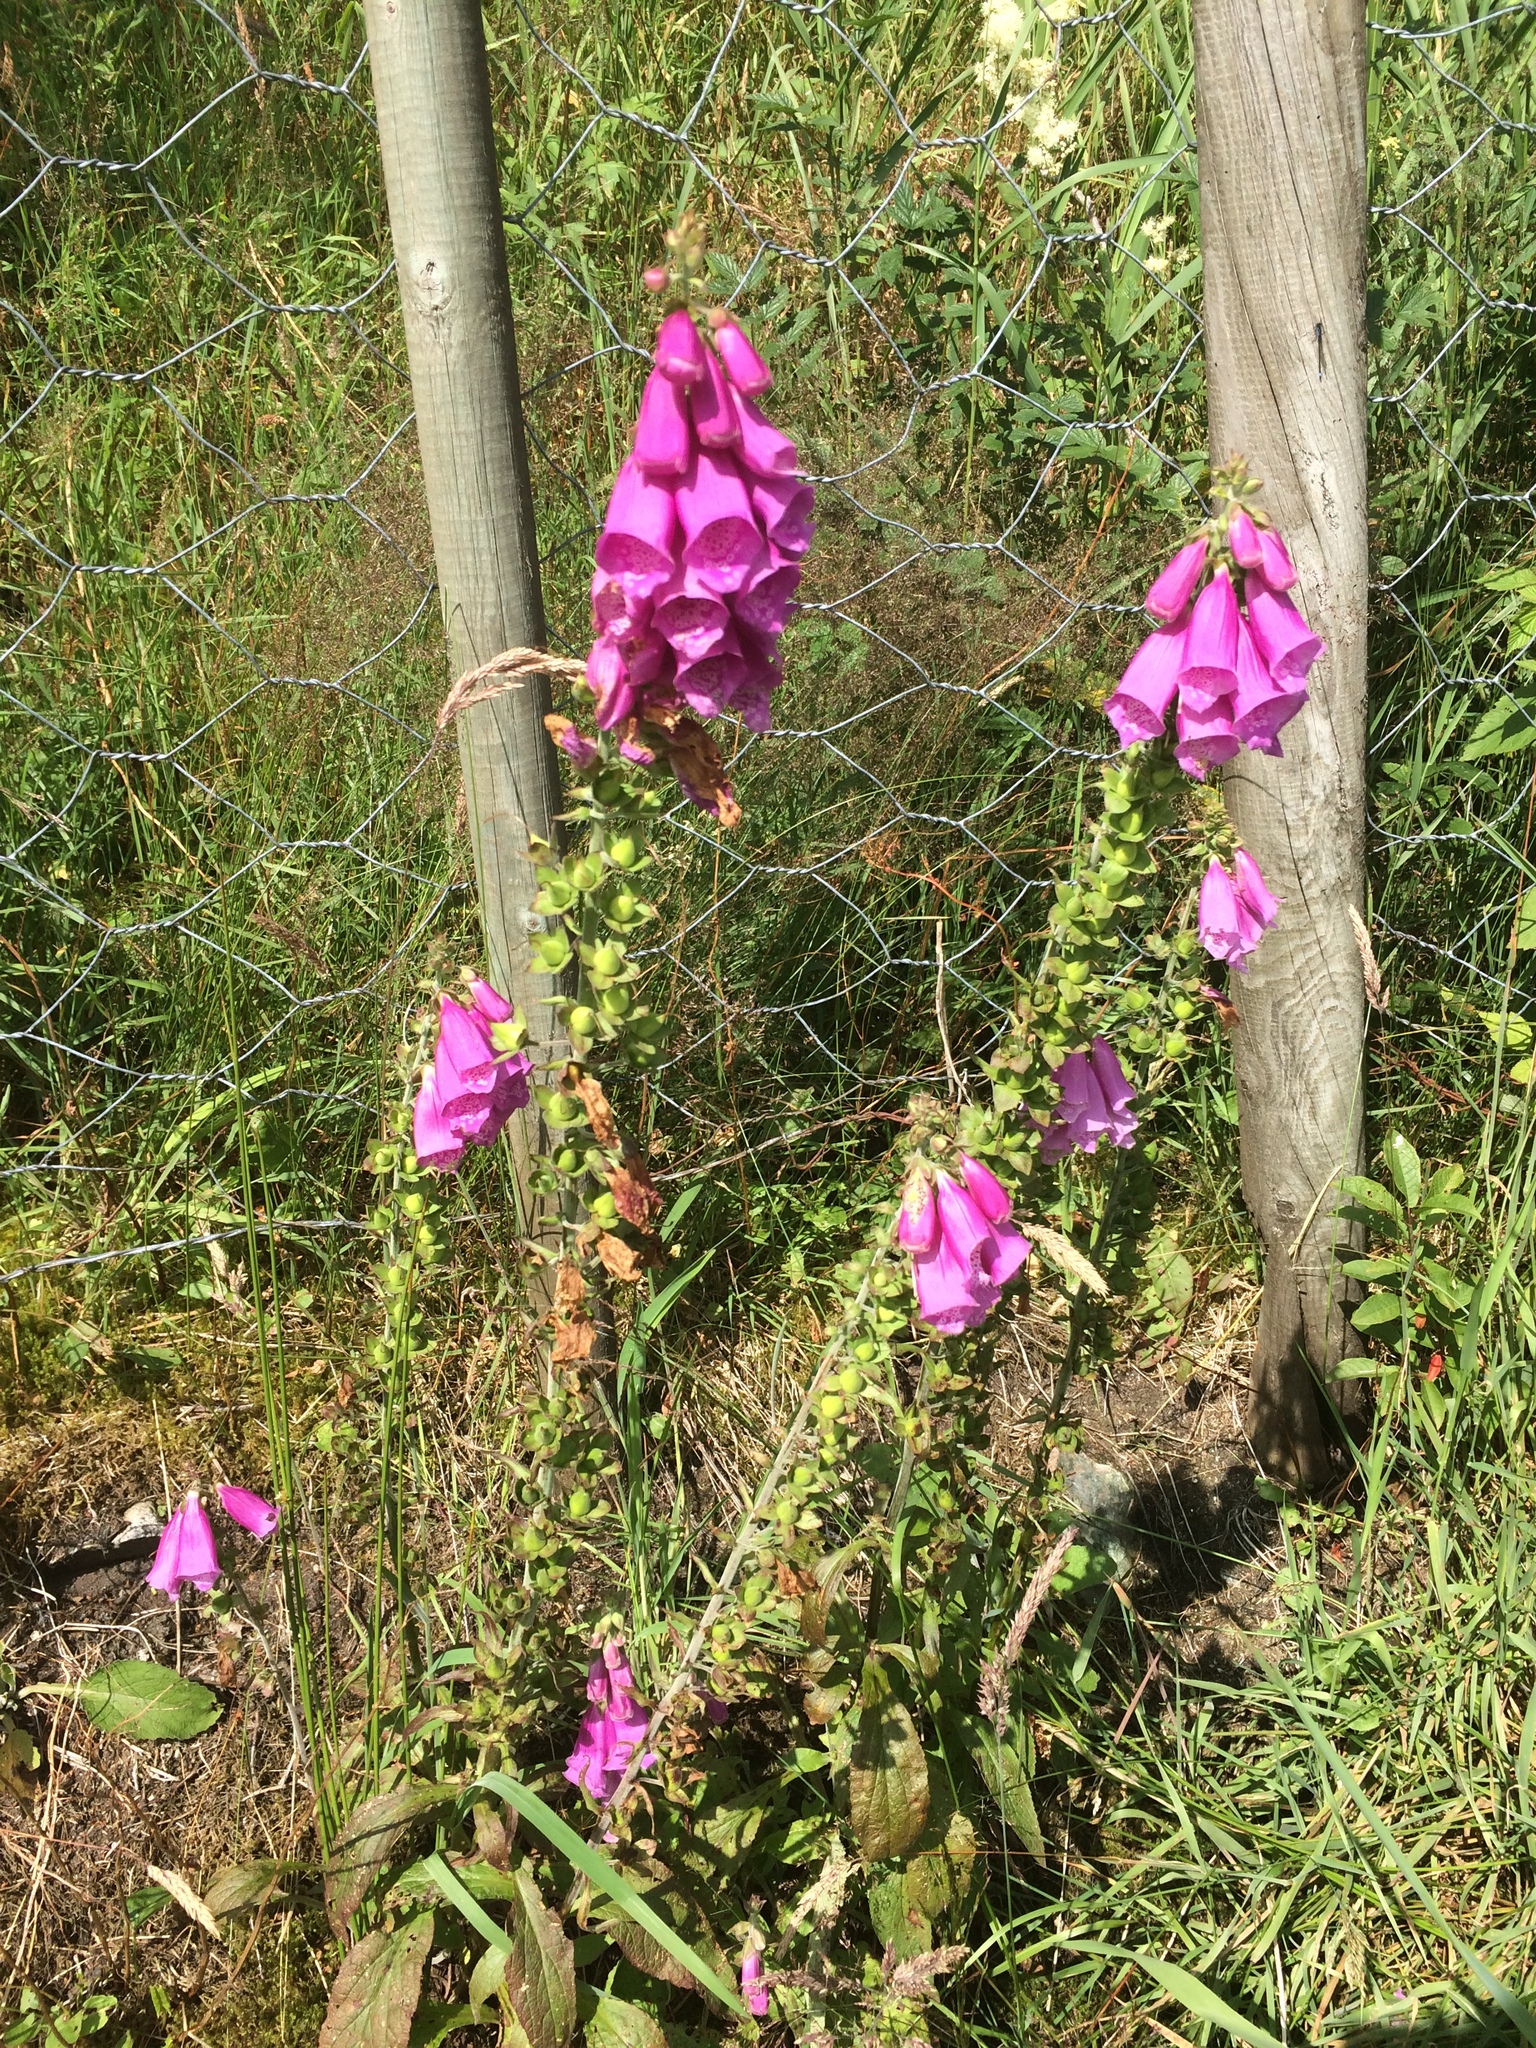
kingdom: Plantae
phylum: Tracheophyta
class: Magnoliopsida
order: Lamiales
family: Plantaginaceae
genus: Digitalis
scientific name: Digitalis purpurea
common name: Foxglove
